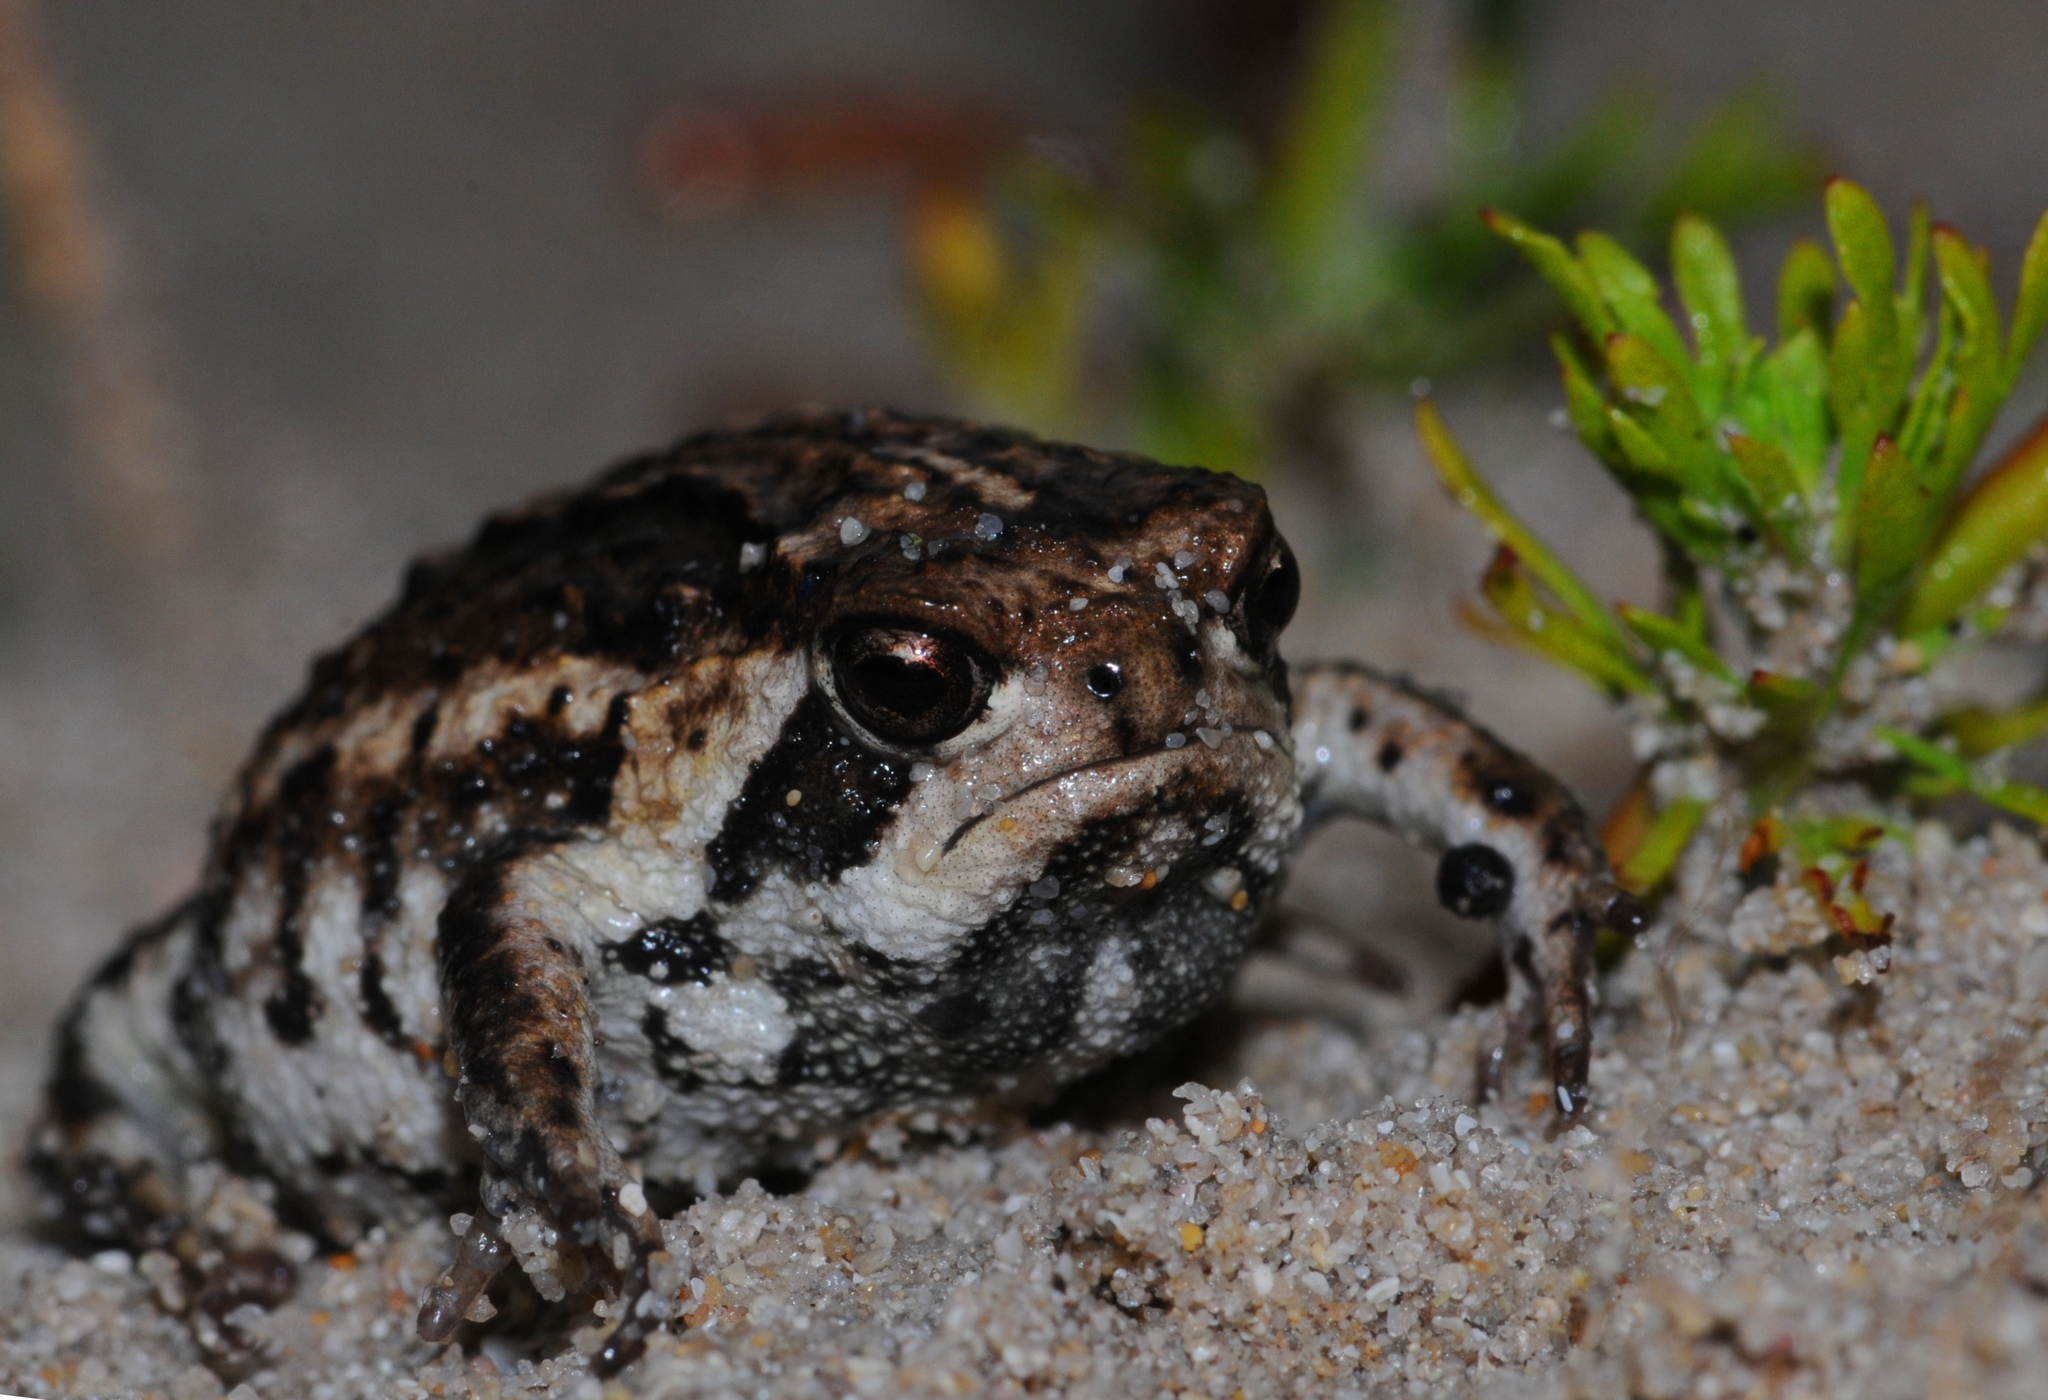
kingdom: Animalia
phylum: Chordata
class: Amphibia
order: Anura
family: Brevicipitidae
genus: Breviceps
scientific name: Breviceps rosei
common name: Rose's short-headed frog
